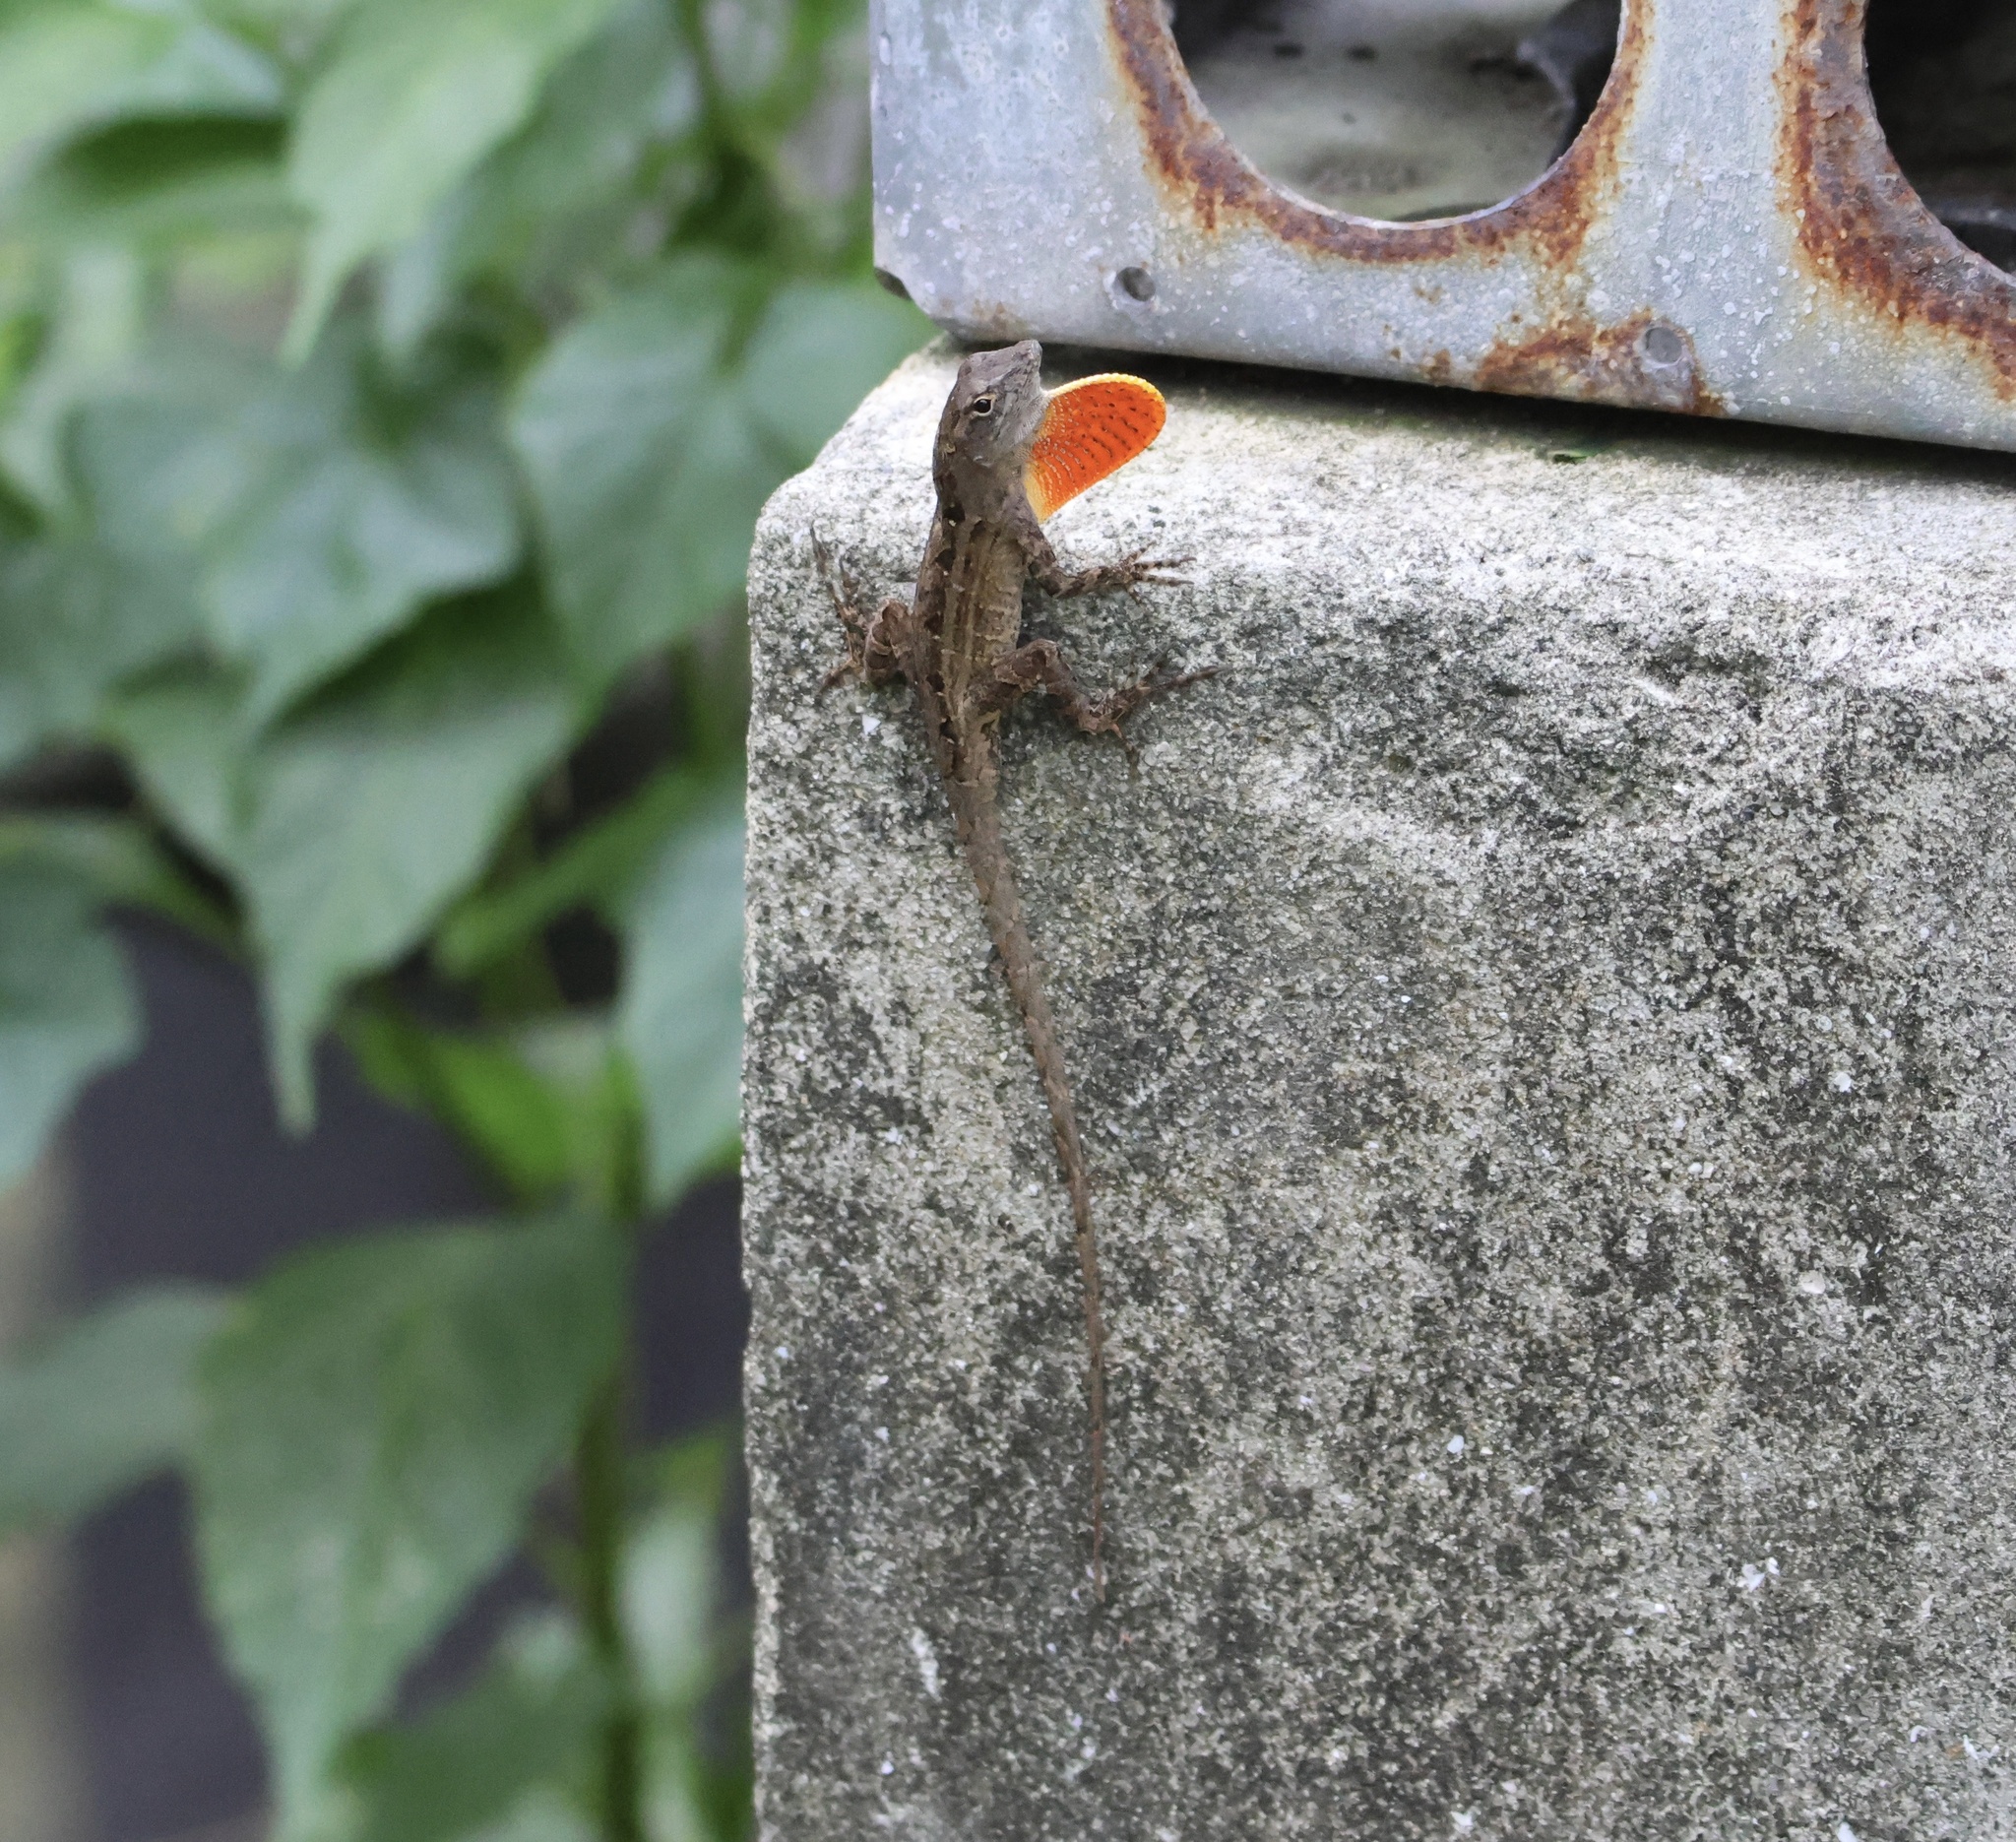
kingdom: Animalia
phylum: Chordata
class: Squamata
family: Dactyloidae
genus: Anolis
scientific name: Anolis sagrei
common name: Brown anole
